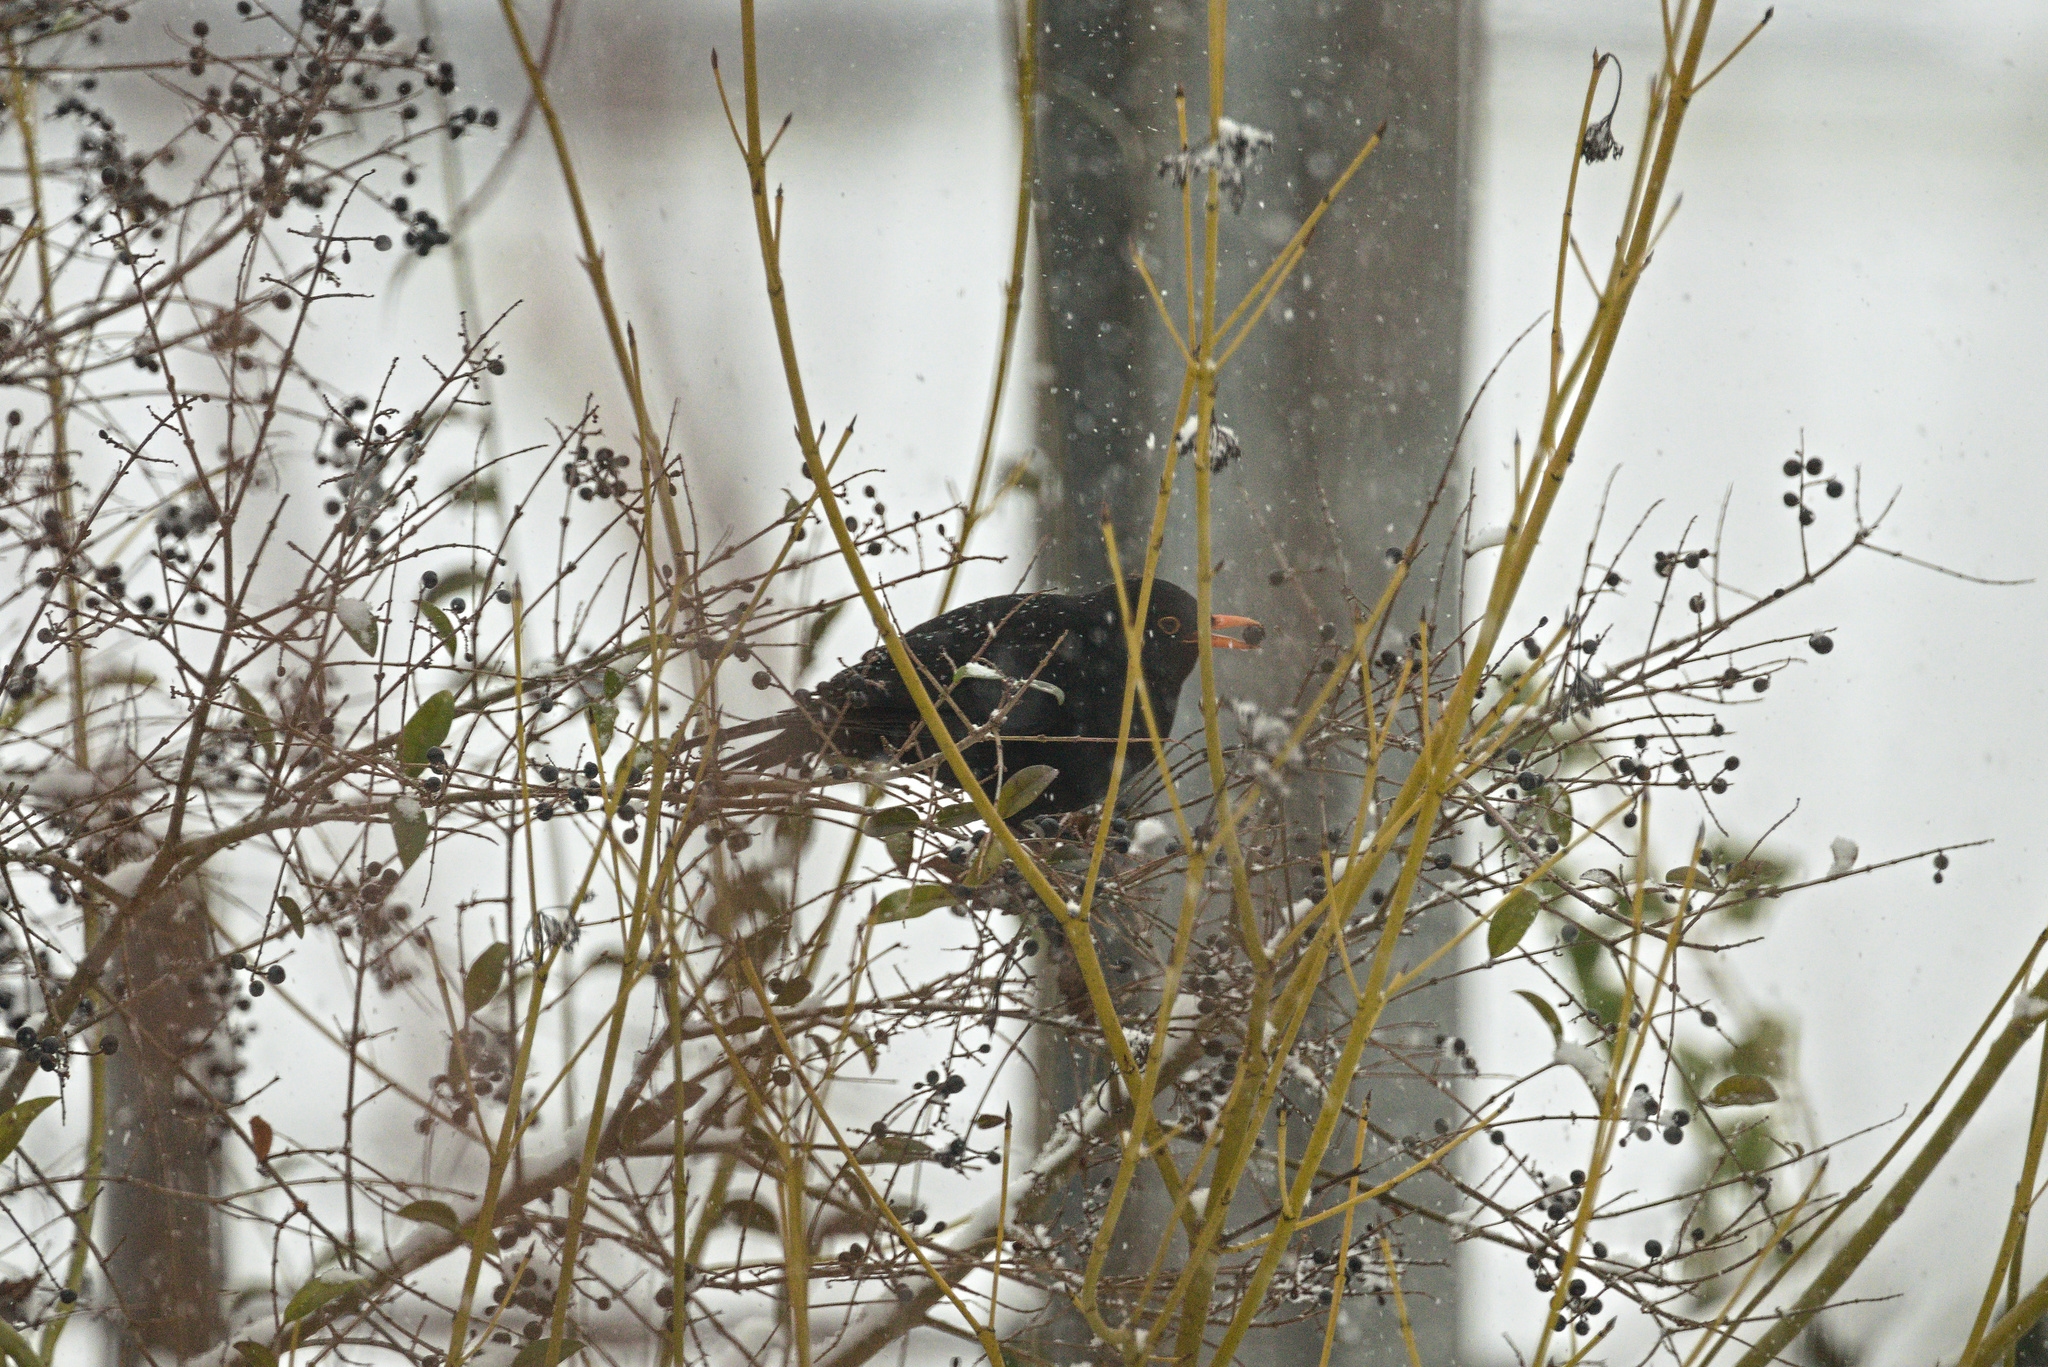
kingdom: Animalia
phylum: Chordata
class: Aves
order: Passeriformes
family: Turdidae
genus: Turdus
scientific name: Turdus merula
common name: Common blackbird
